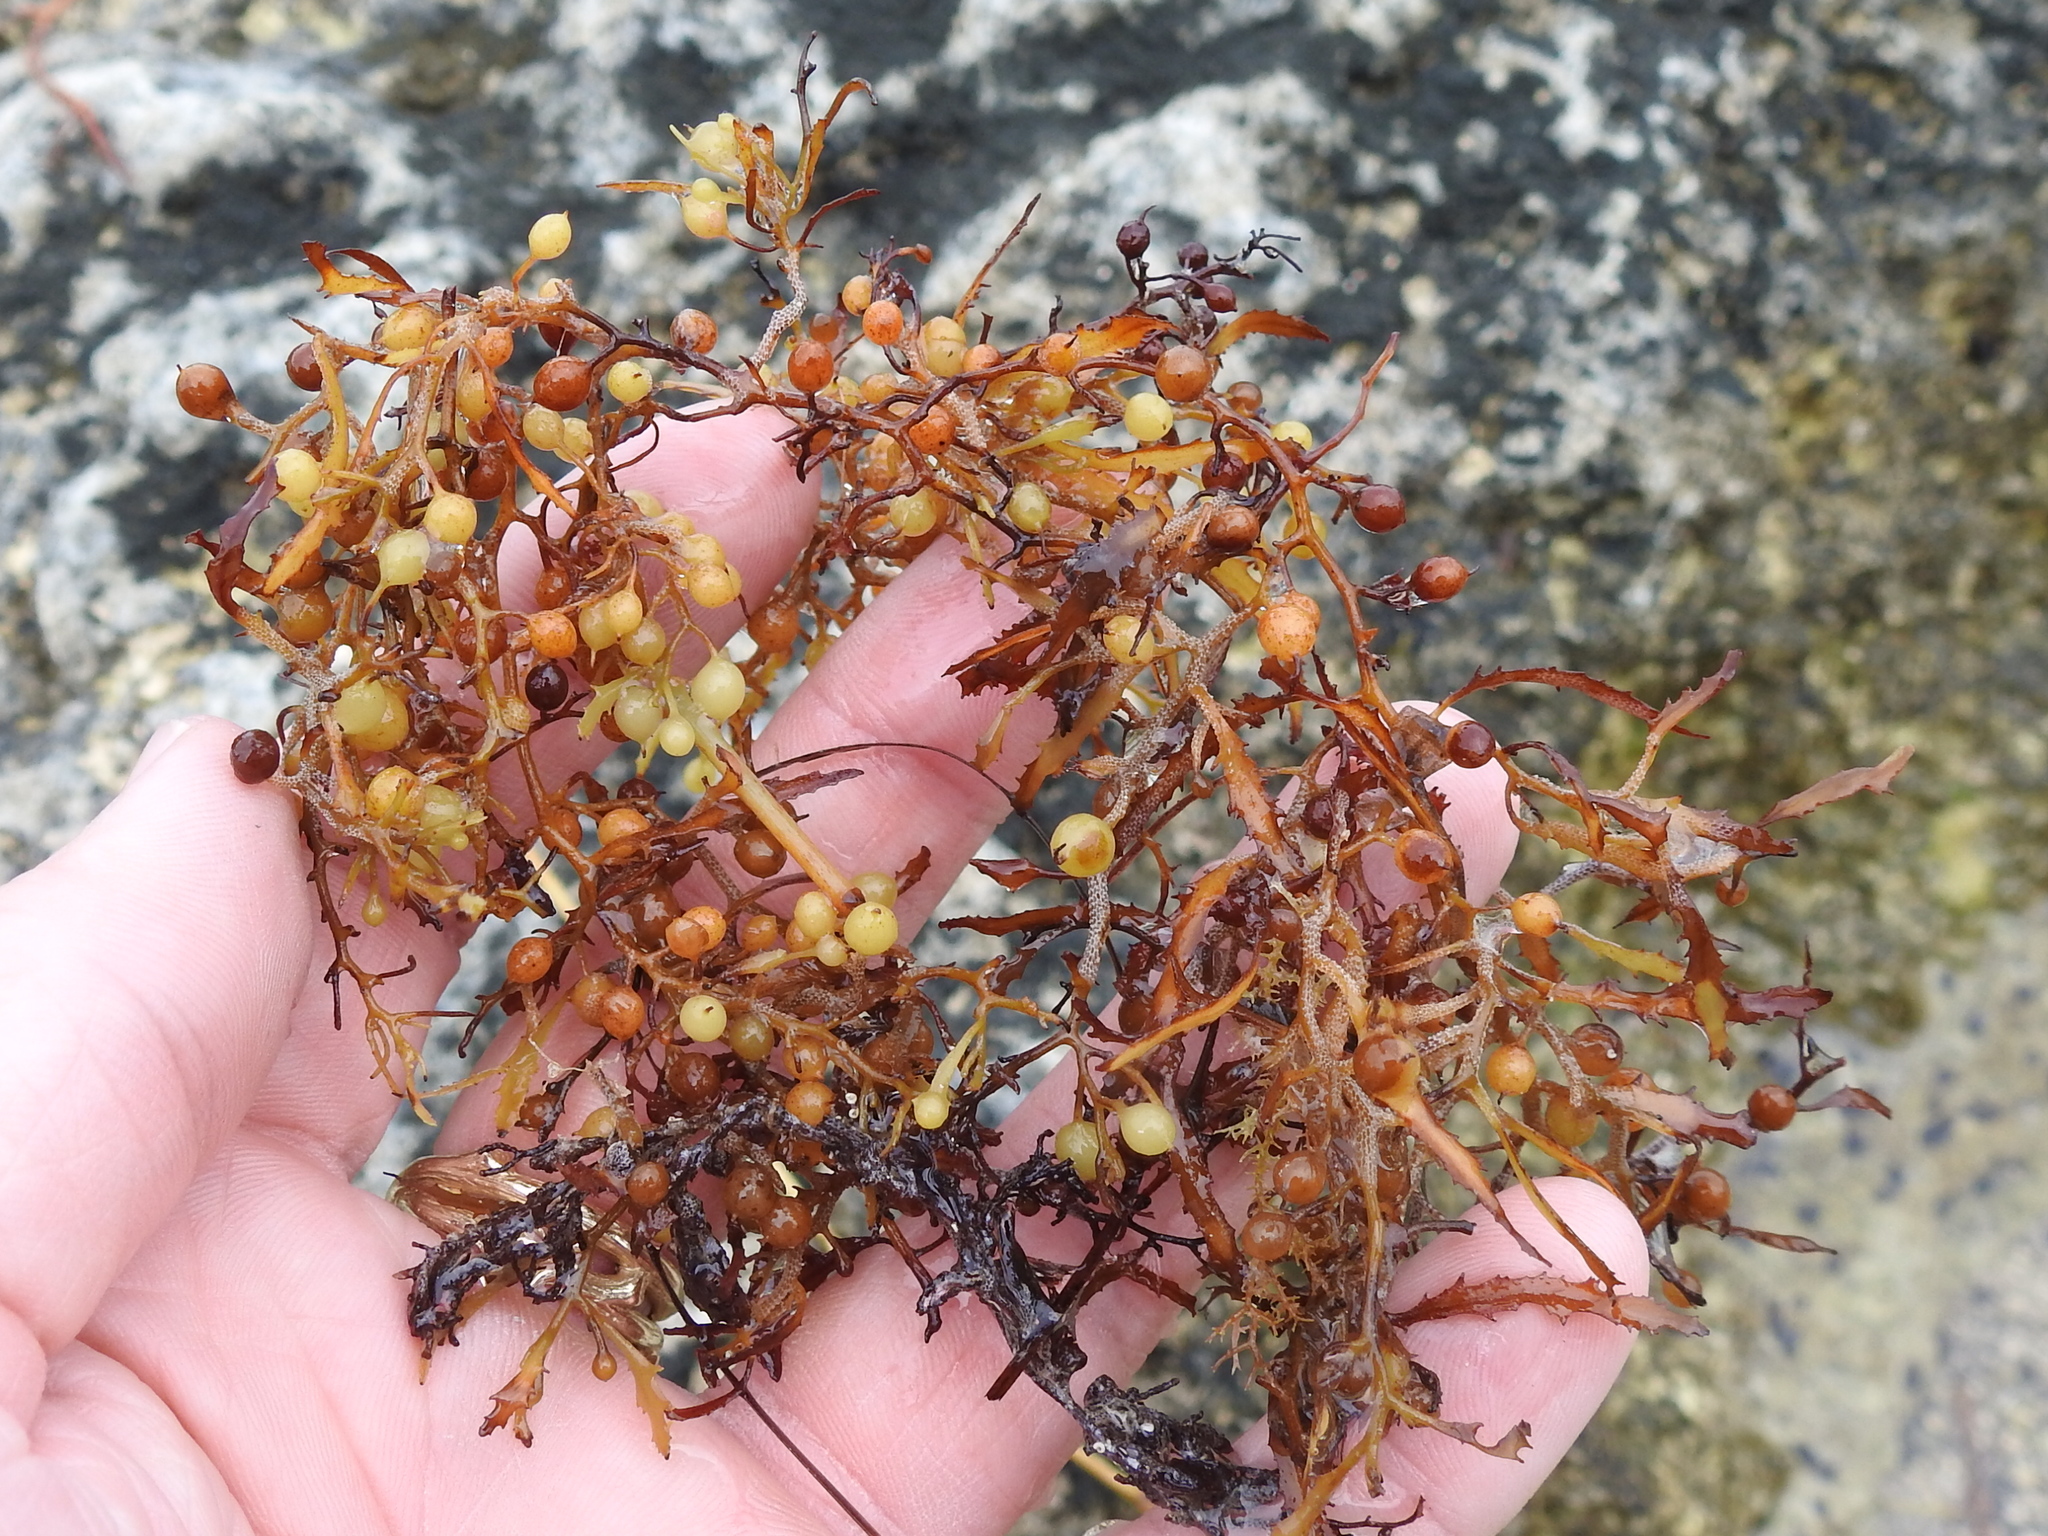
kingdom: Chromista
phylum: Ochrophyta
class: Phaeophyceae
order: Fucales
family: Sargassaceae
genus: Sargassum
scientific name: Sargassum natans
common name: Sargasso weed
